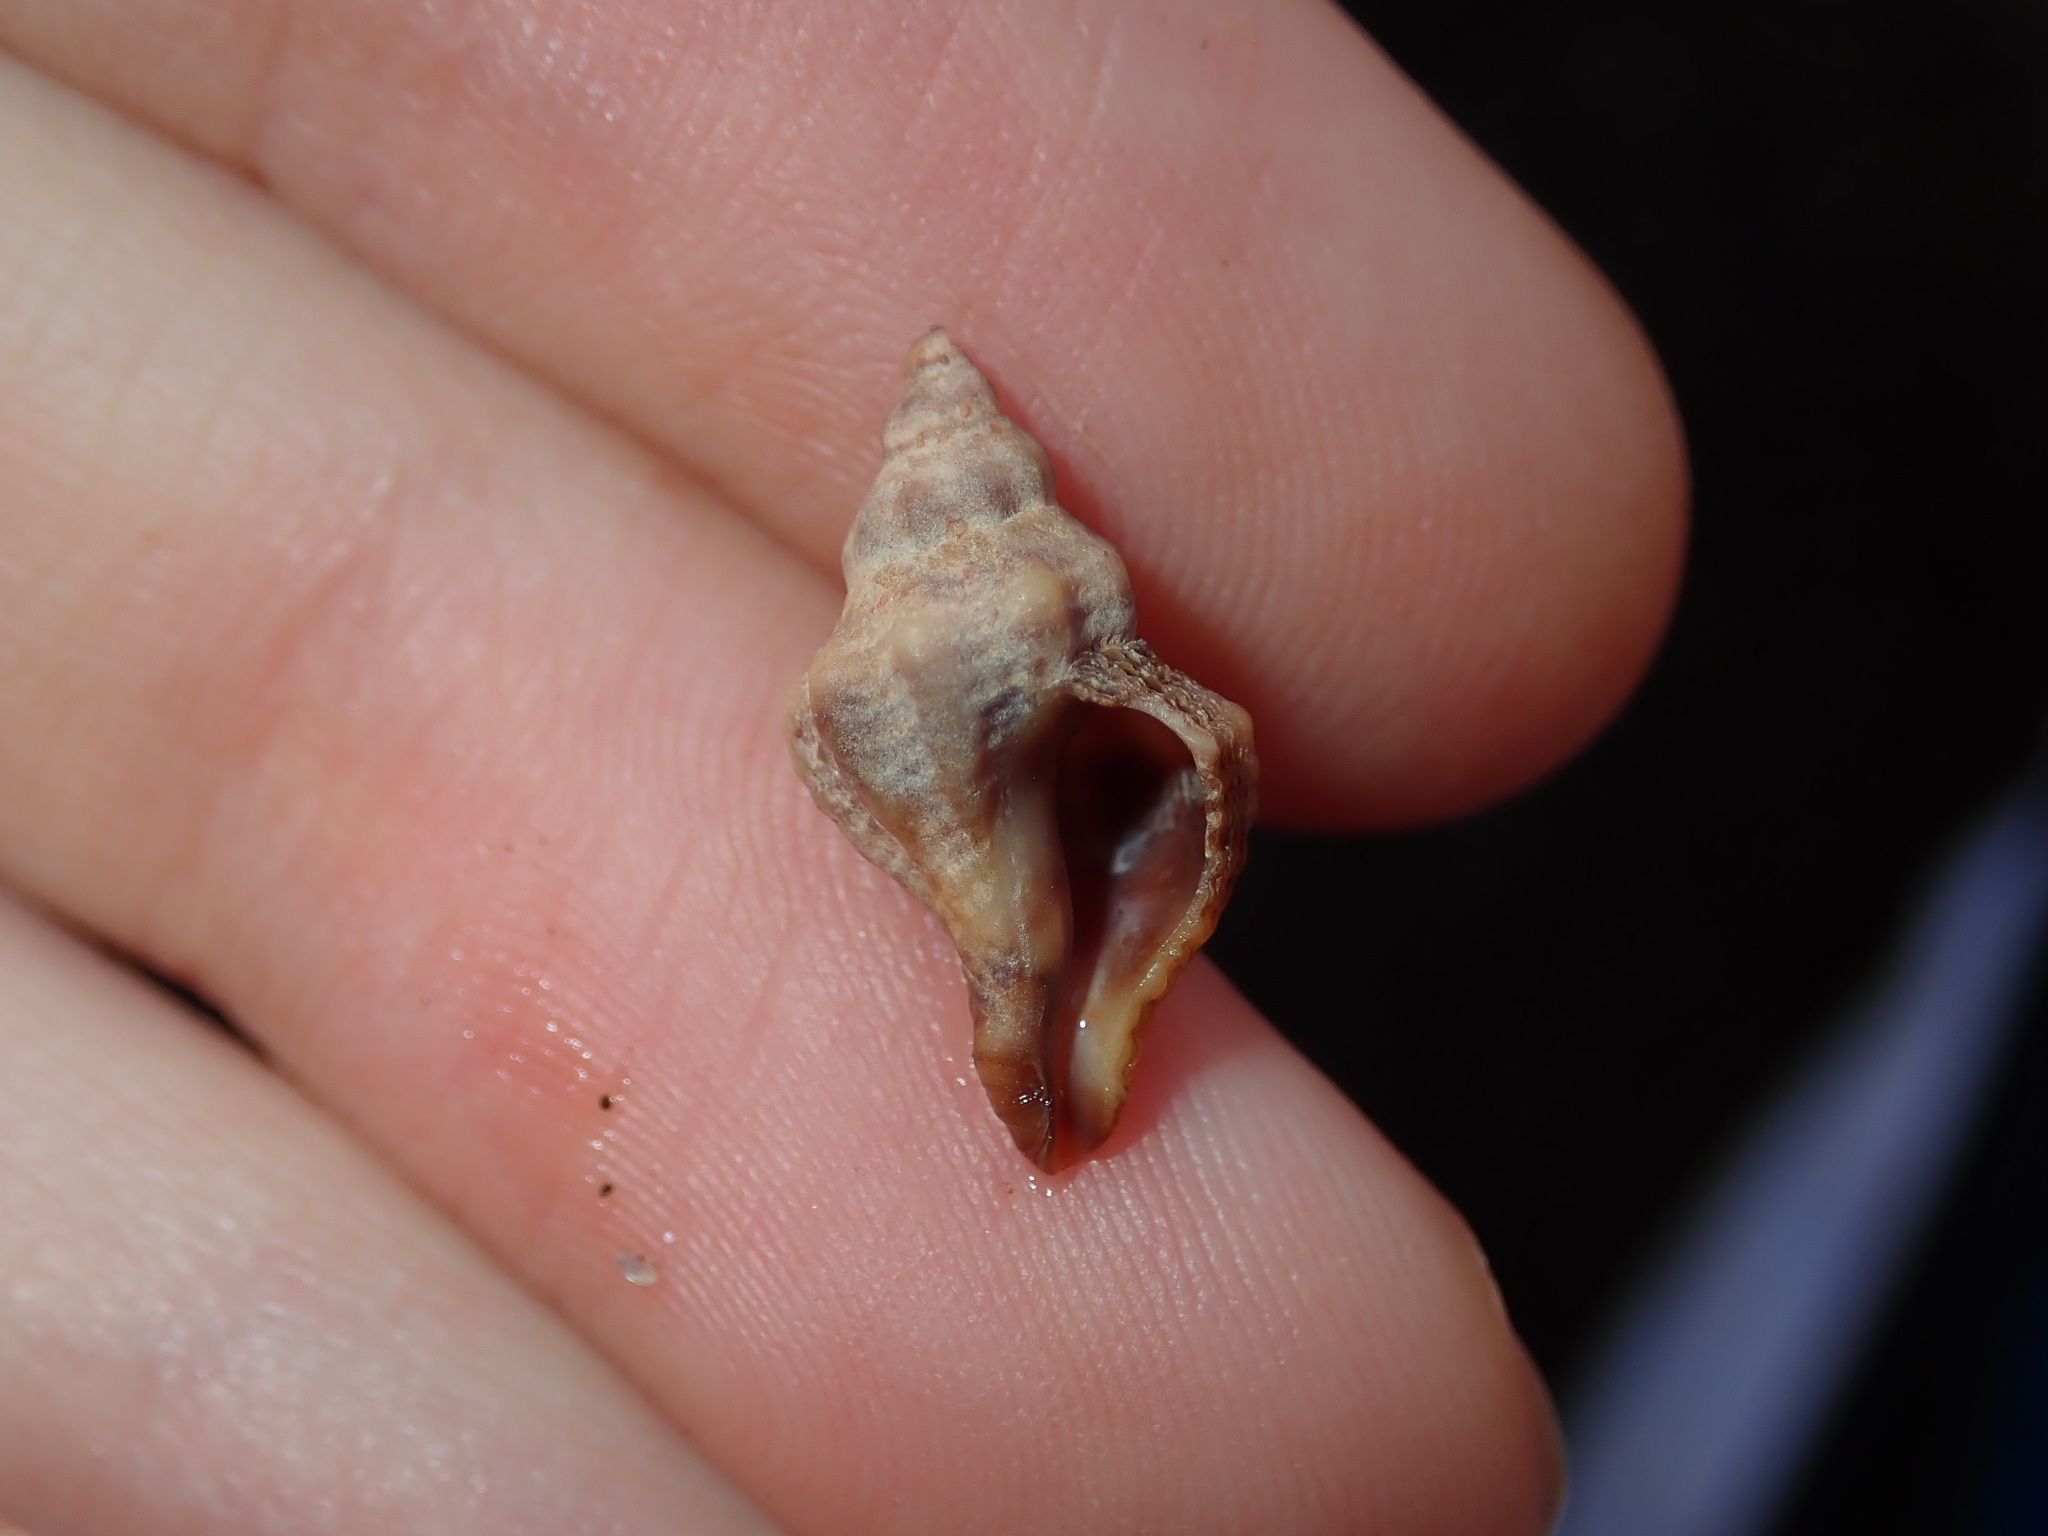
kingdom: Animalia
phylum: Mollusca
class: Gastropoda
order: Neogastropoda
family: Muricidae
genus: Bedeva
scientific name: Bedeva paivae
